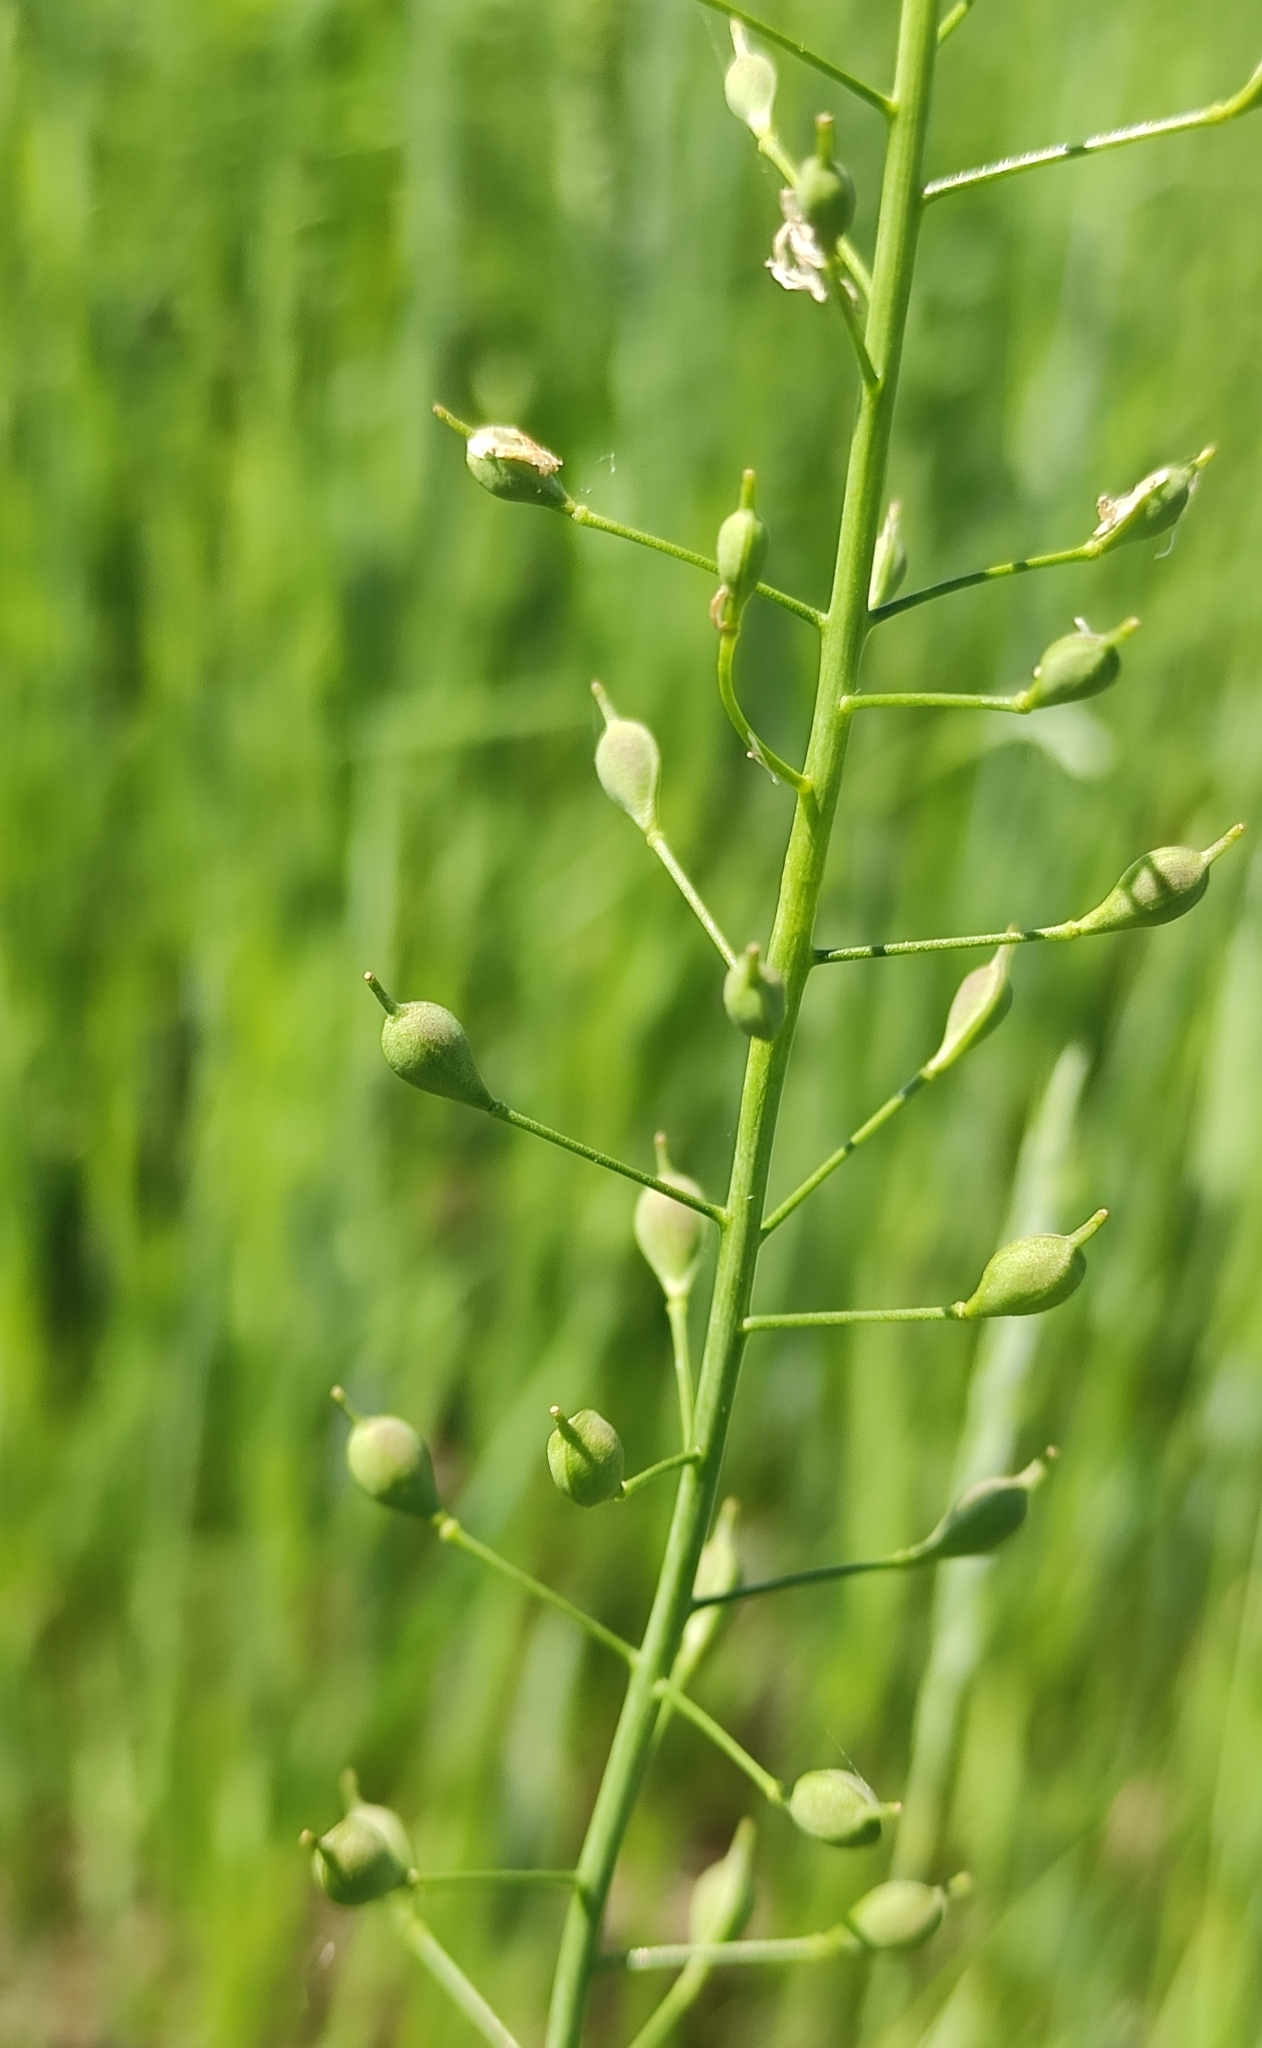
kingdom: Plantae
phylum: Tracheophyta
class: Magnoliopsida
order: Brassicales
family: Brassicaceae
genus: Camelina
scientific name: Camelina microcarpa
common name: Lesser gold-of-pleasure
